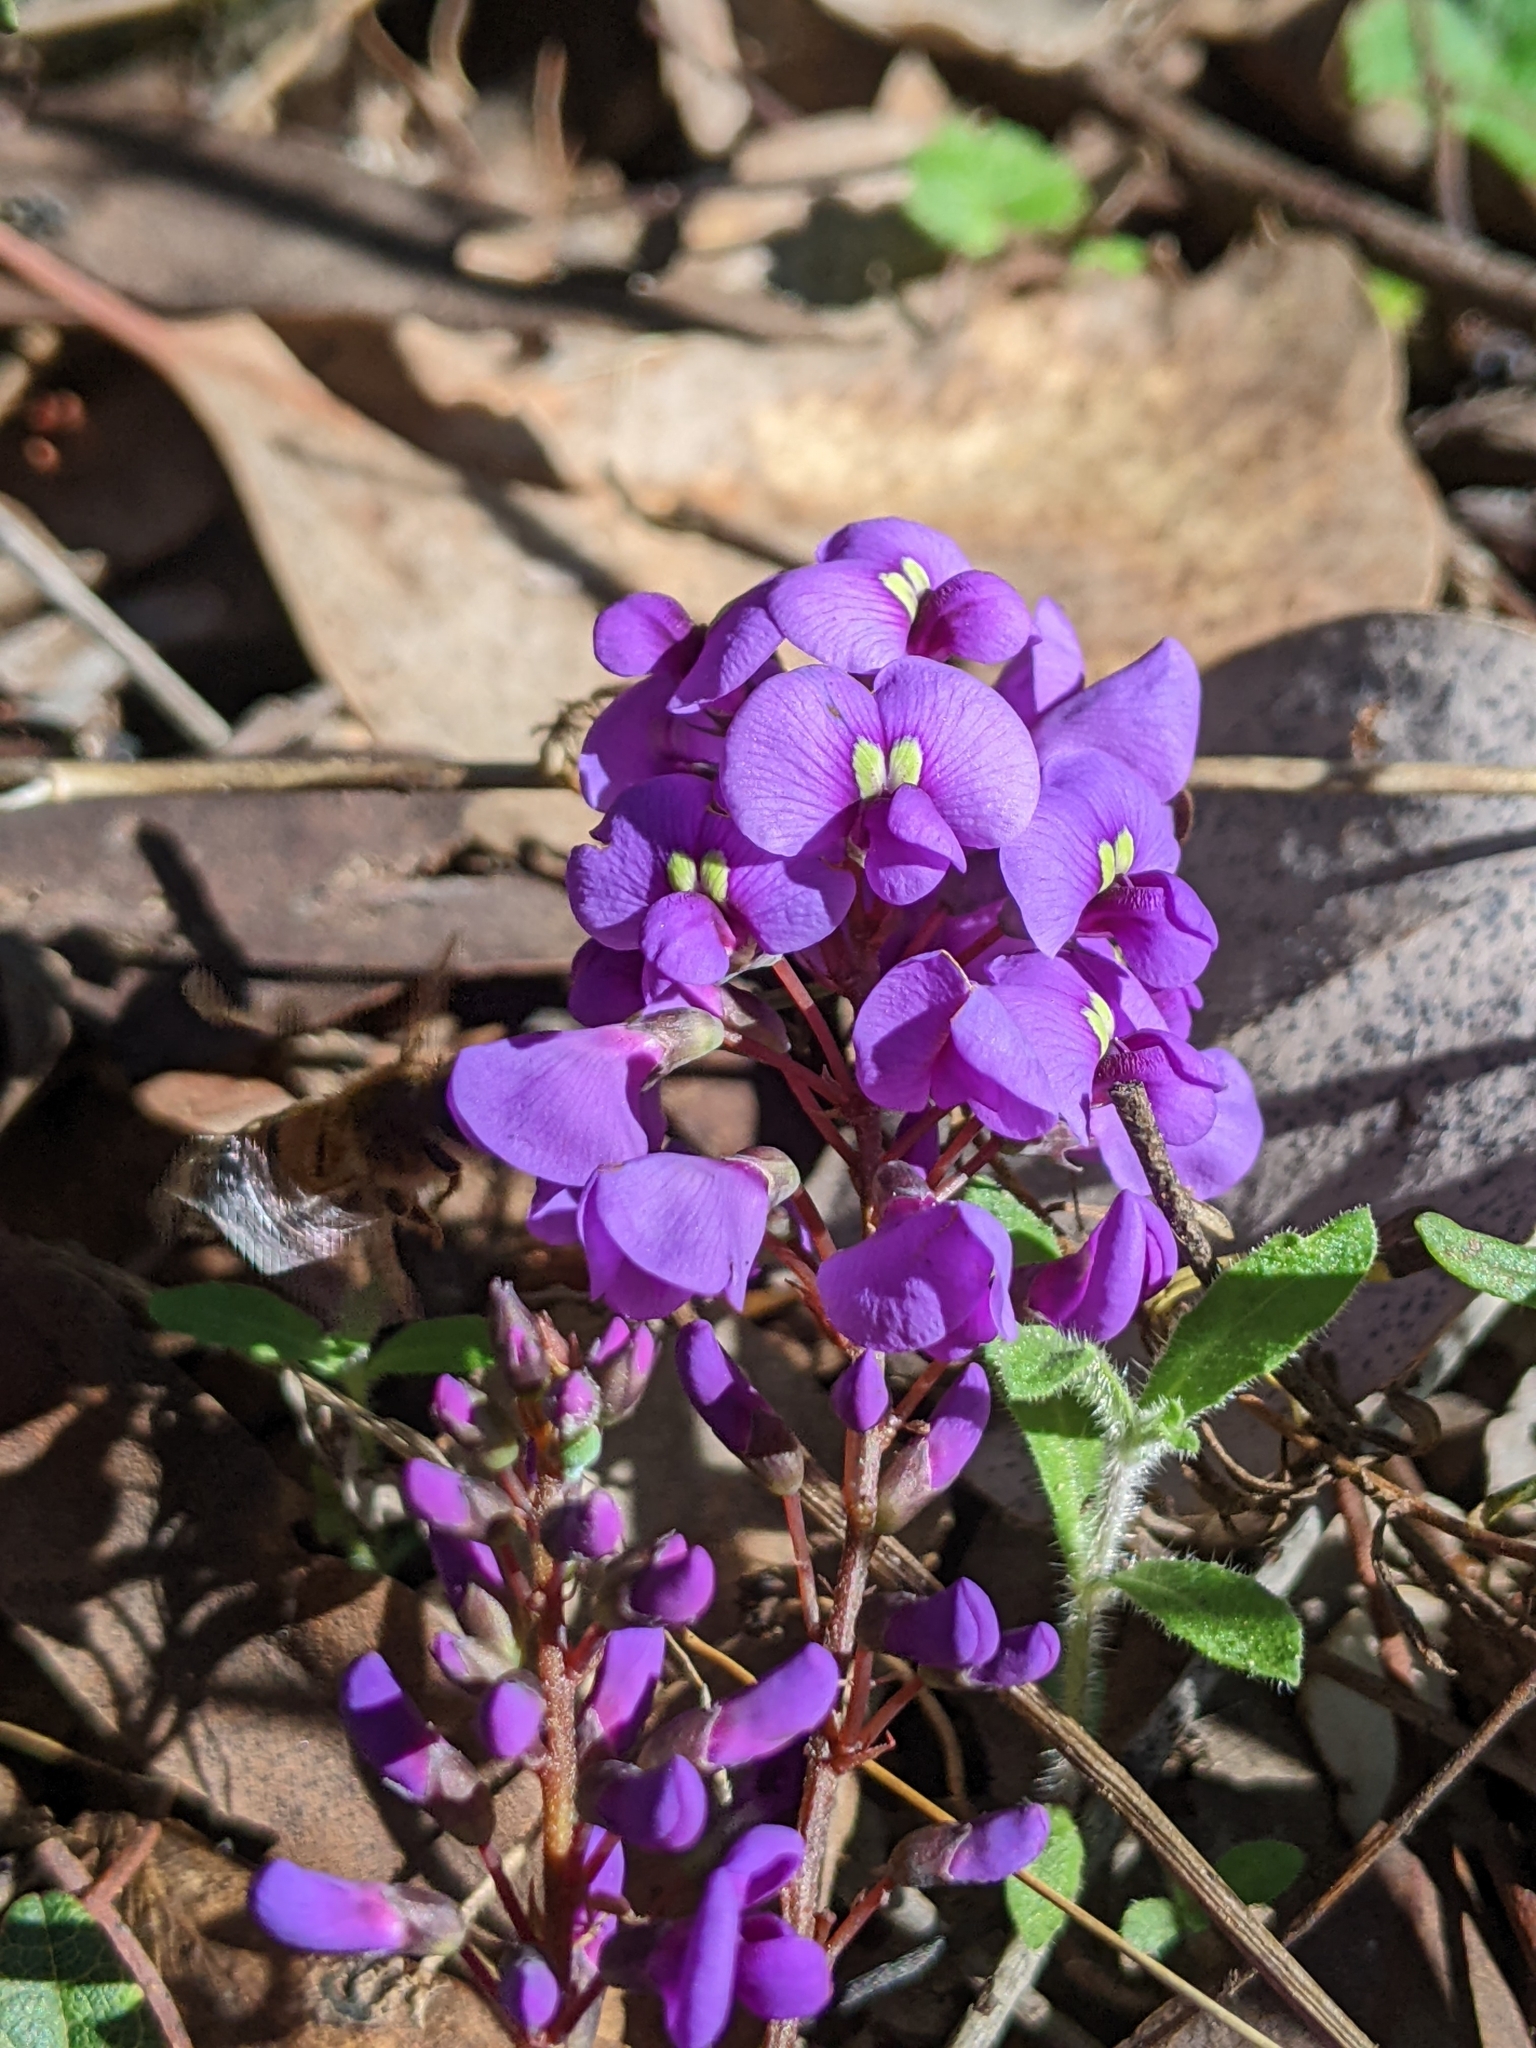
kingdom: Plantae
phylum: Tracheophyta
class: Magnoliopsida
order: Fabales
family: Fabaceae
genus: Hardenbergia
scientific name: Hardenbergia violacea
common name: Coral-pea
